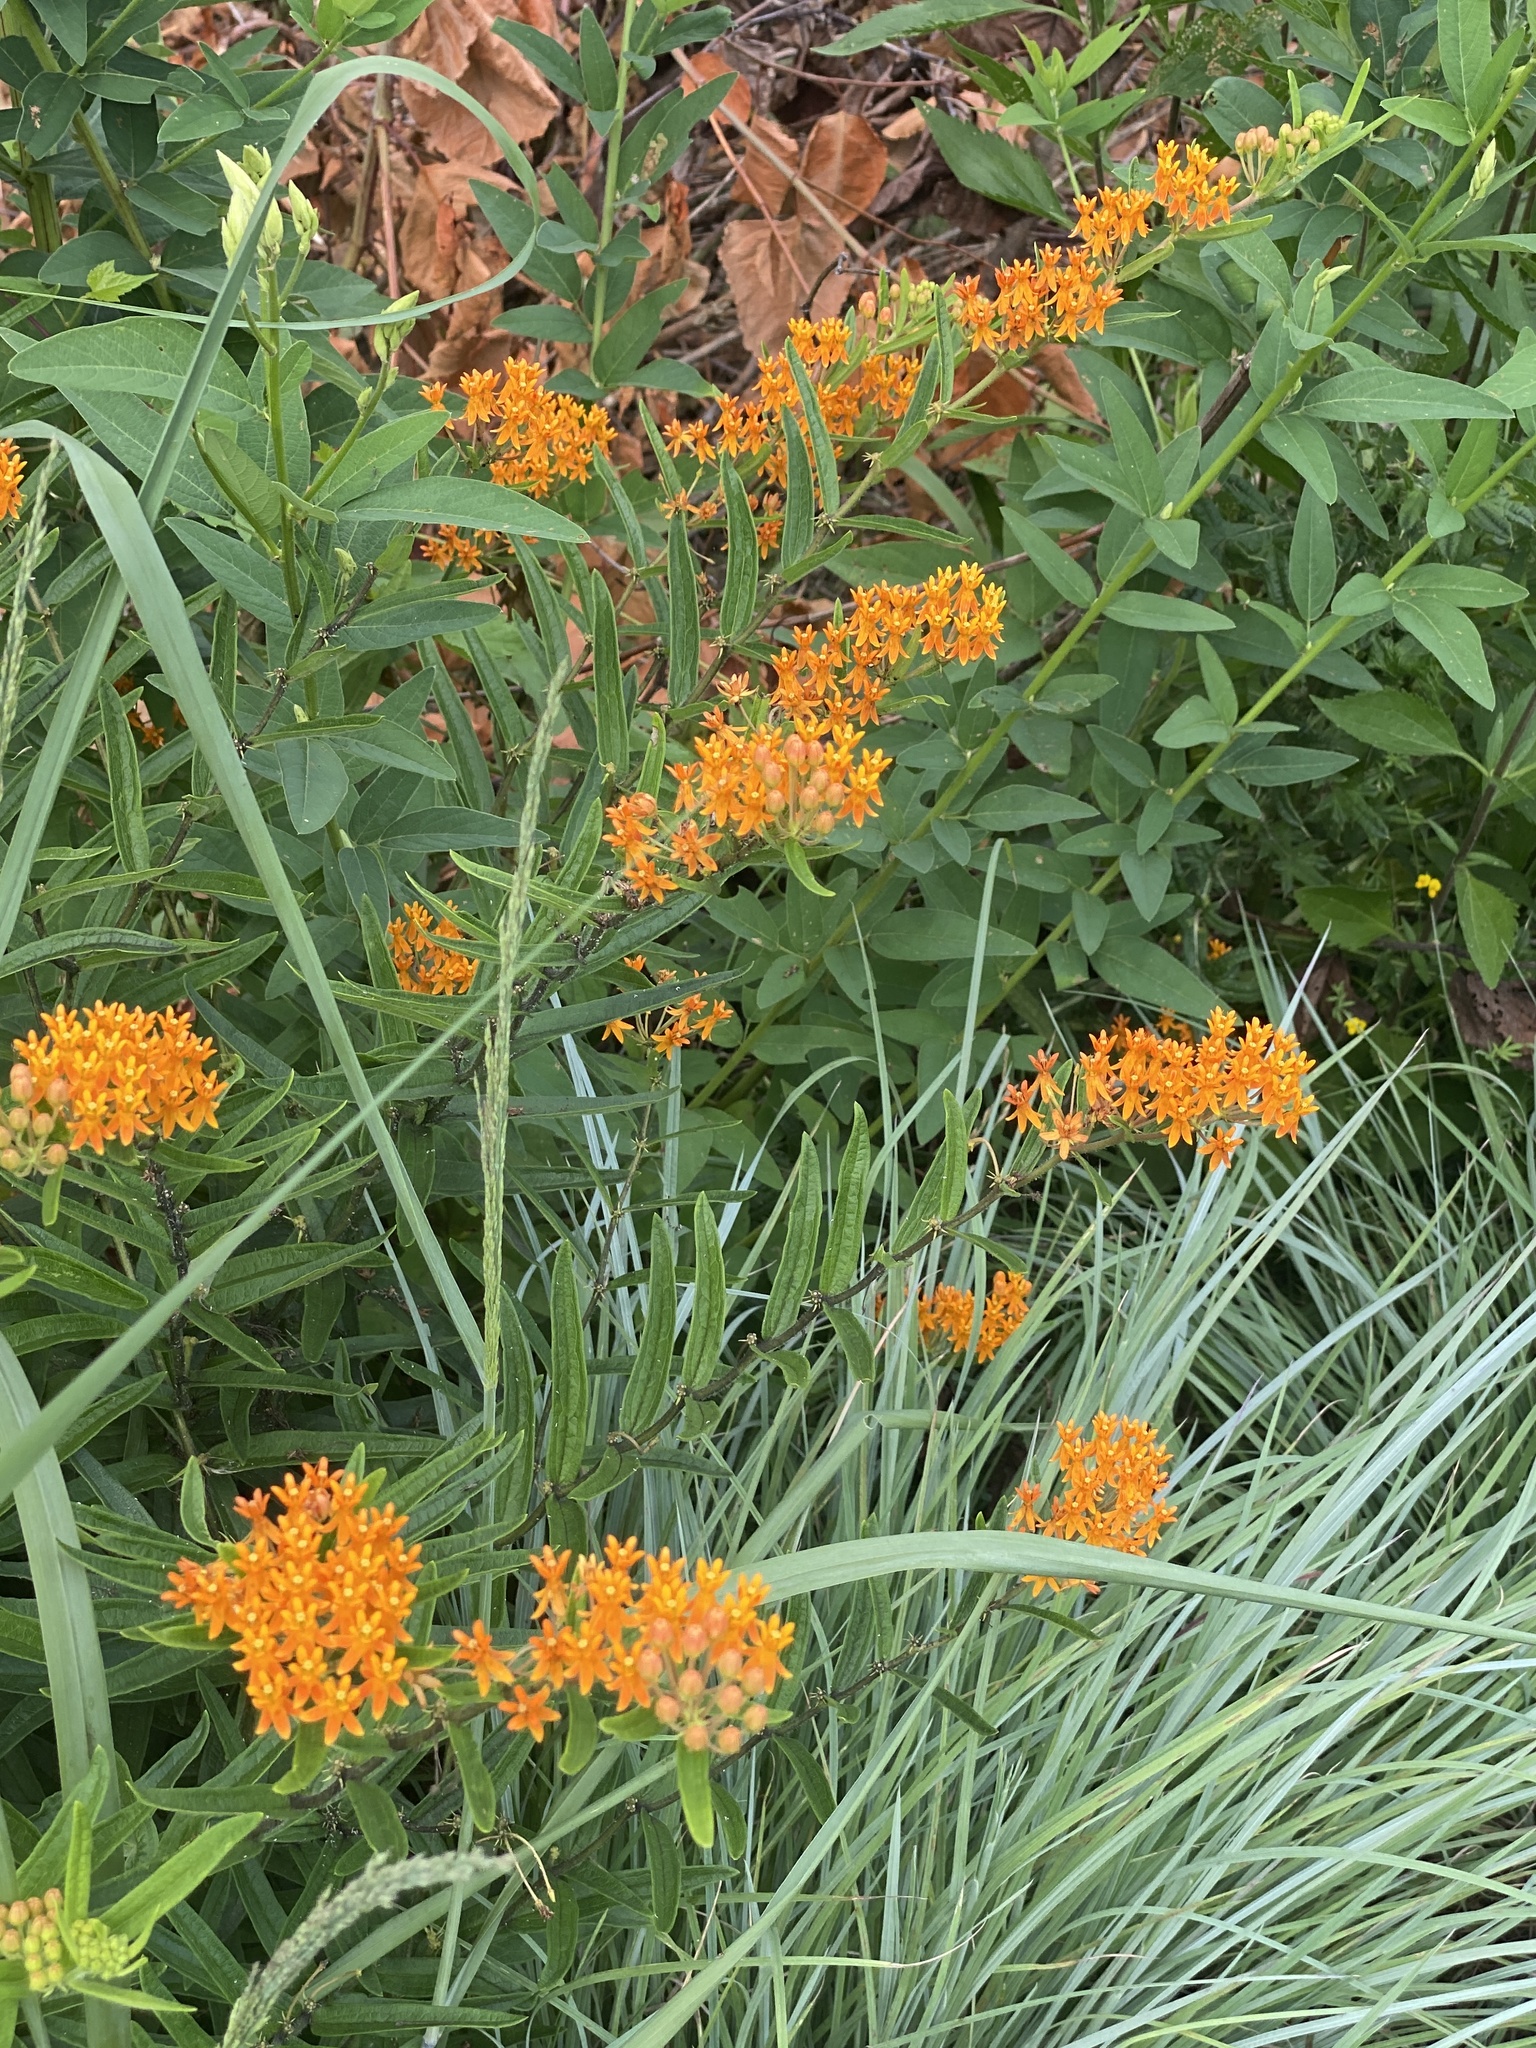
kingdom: Plantae
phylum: Tracheophyta
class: Magnoliopsida
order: Gentianales
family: Apocynaceae
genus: Asclepias
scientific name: Asclepias tuberosa
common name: Butterfly milkweed
